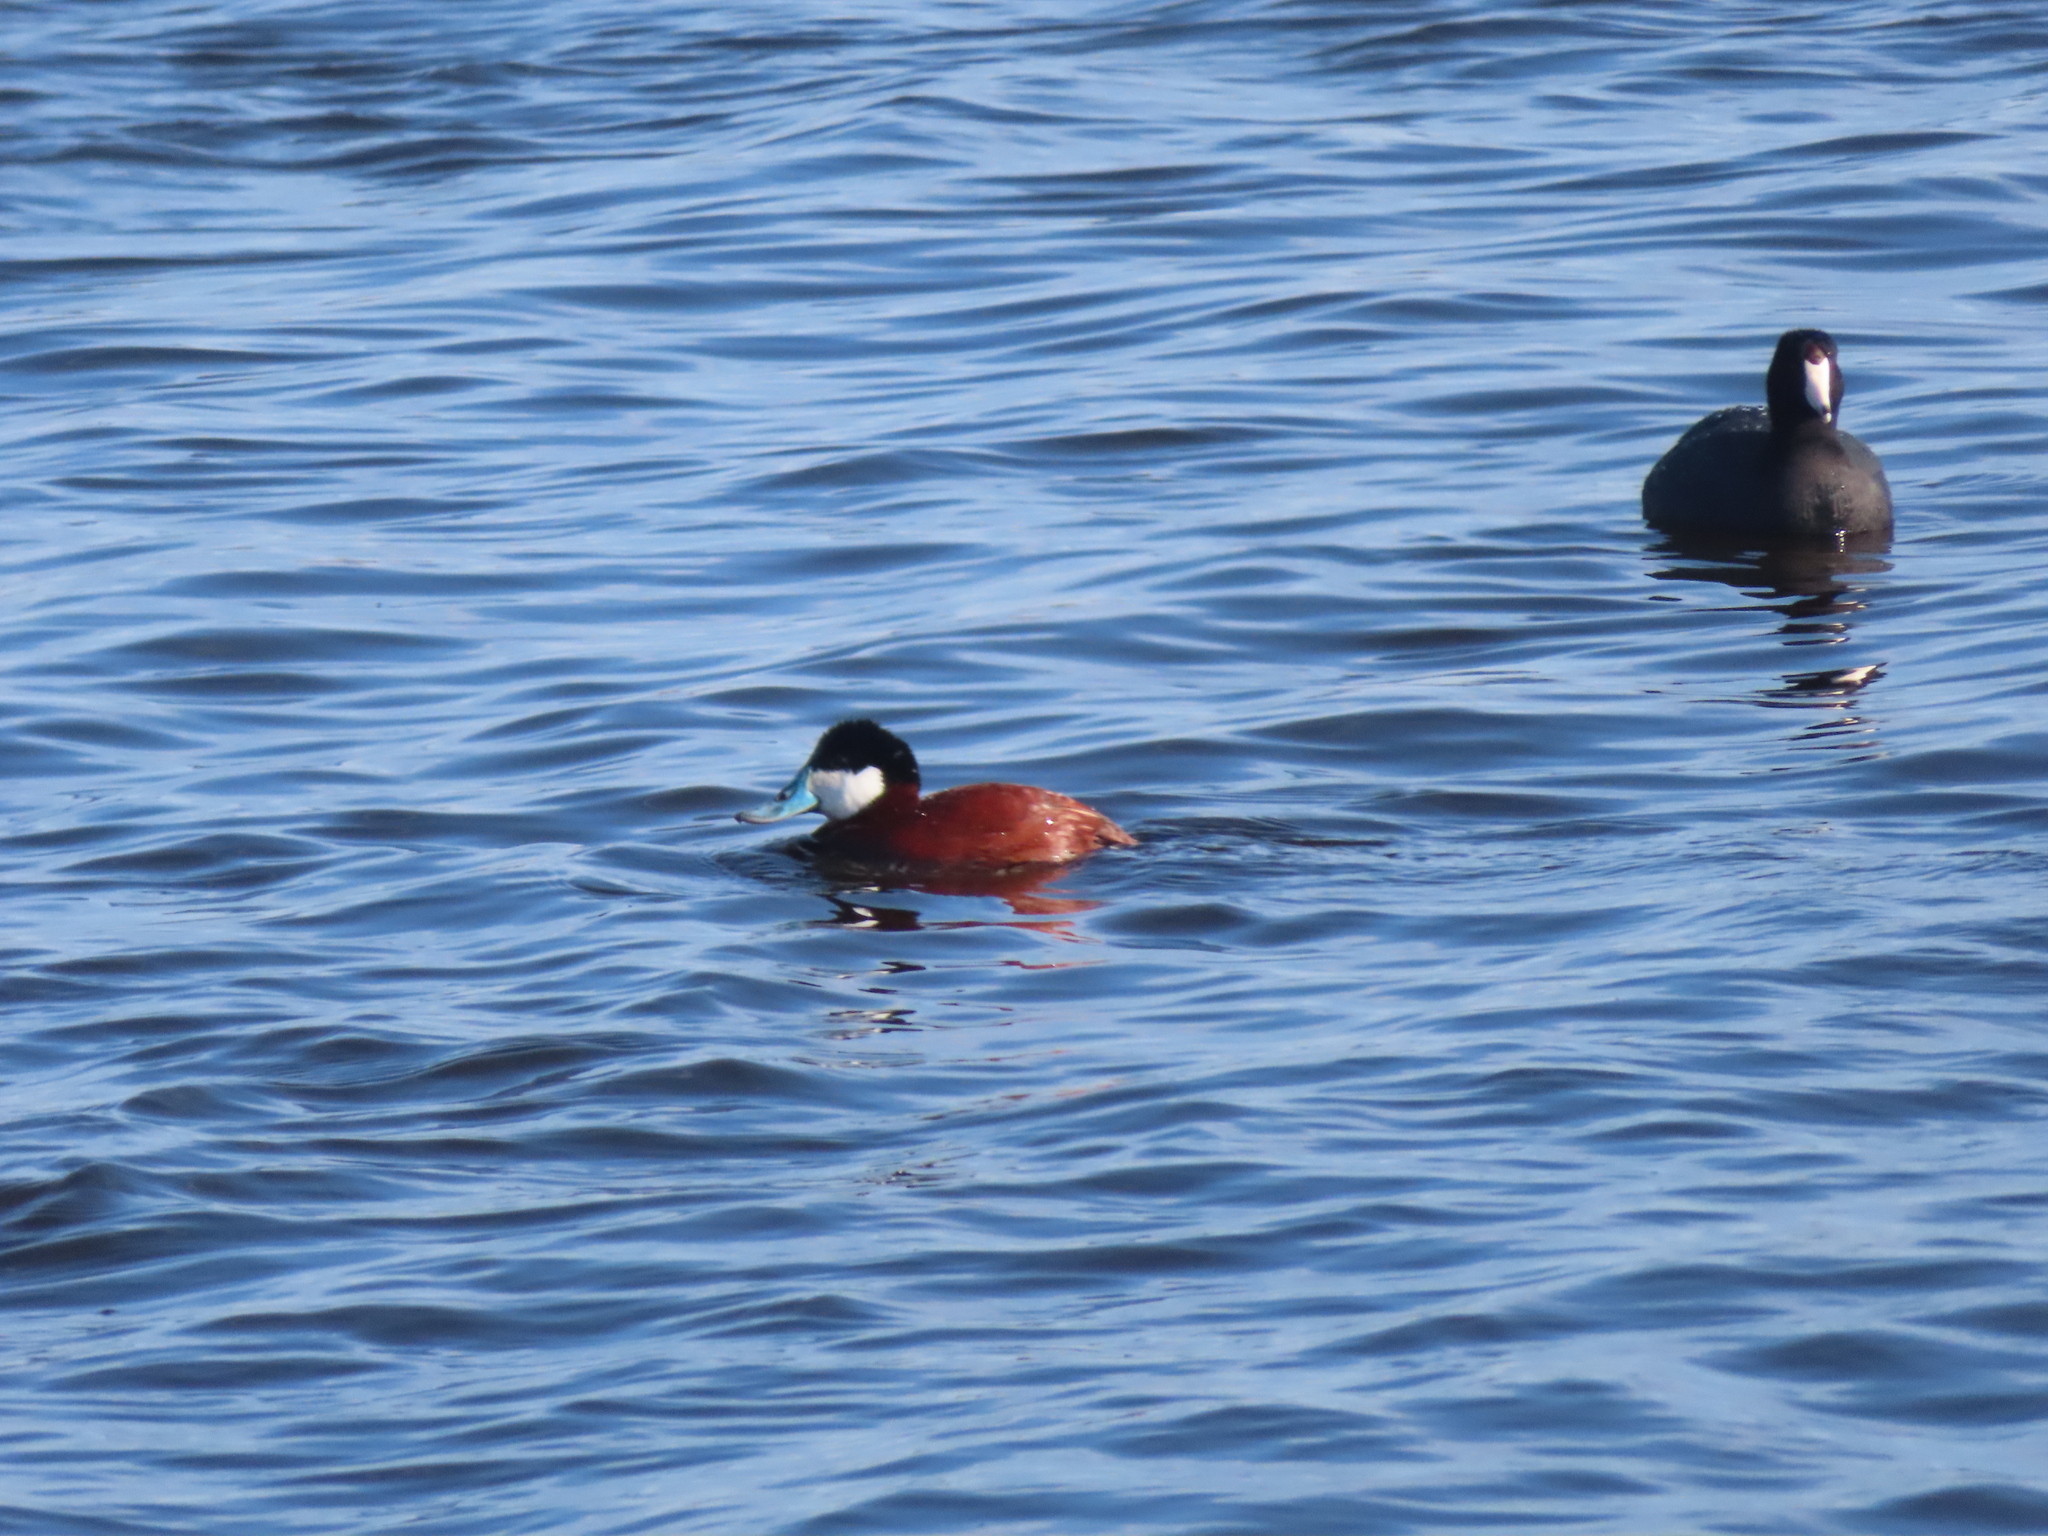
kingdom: Animalia
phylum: Chordata
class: Aves
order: Anseriformes
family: Anatidae
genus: Oxyura
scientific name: Oxyura jamaicensis
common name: Ruddy duck
